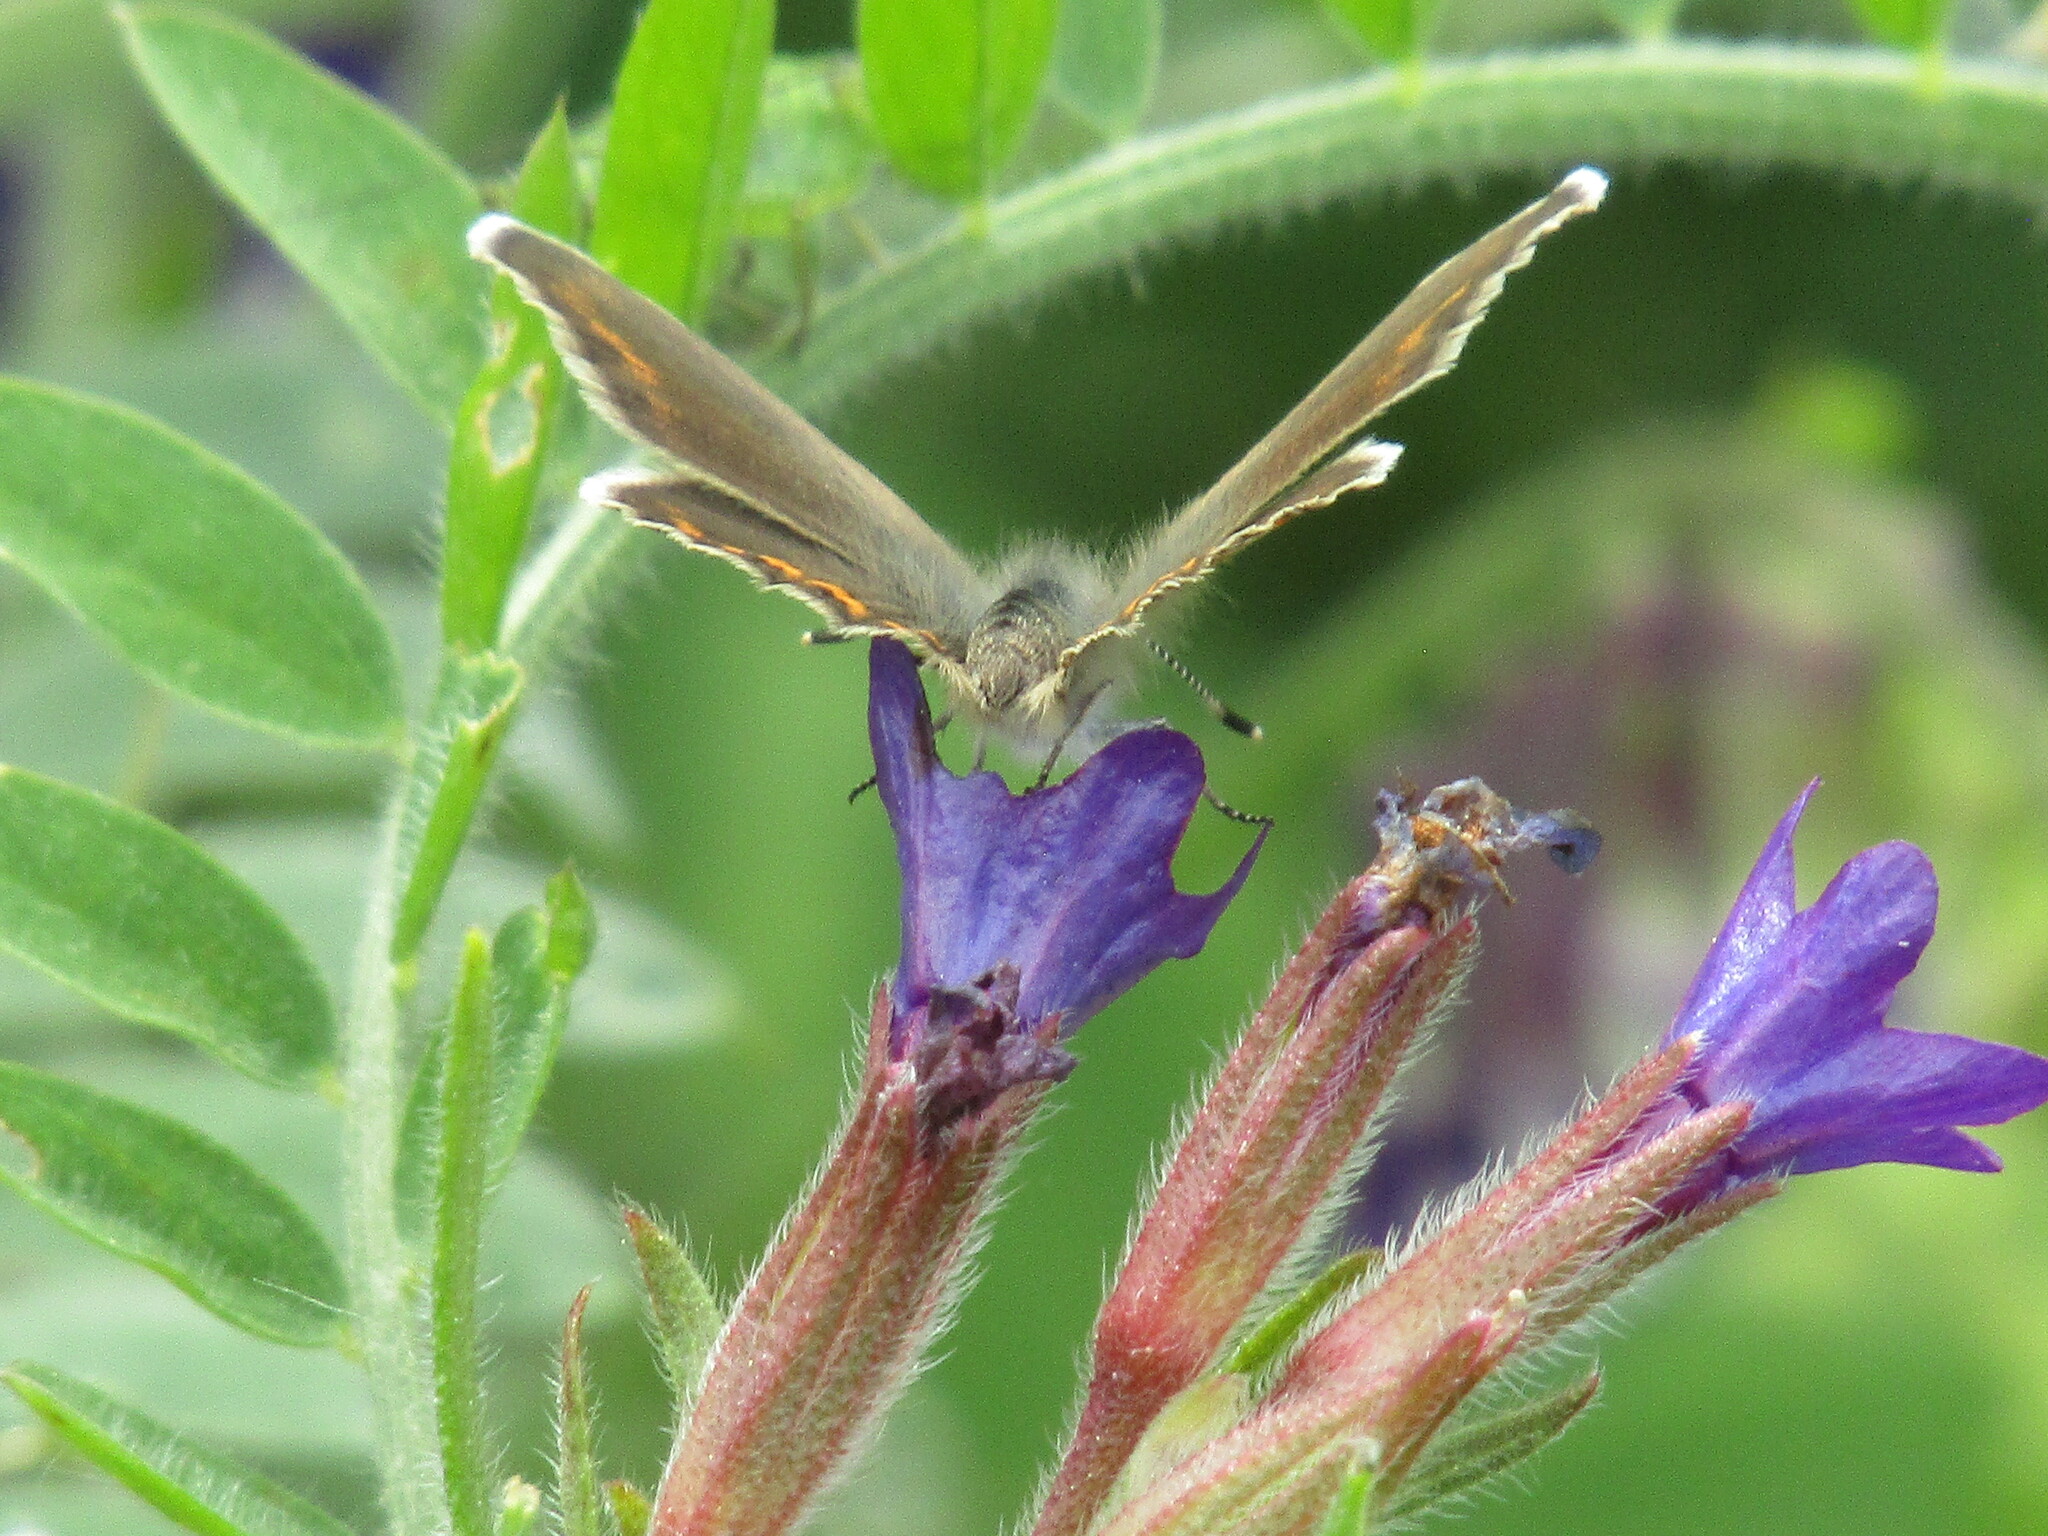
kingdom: Animalia
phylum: Arthropoda
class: Insecta
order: Lepidoptera
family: Lycaenidae
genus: Plebejus
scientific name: Plebejus argus
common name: Silver-studded blue
